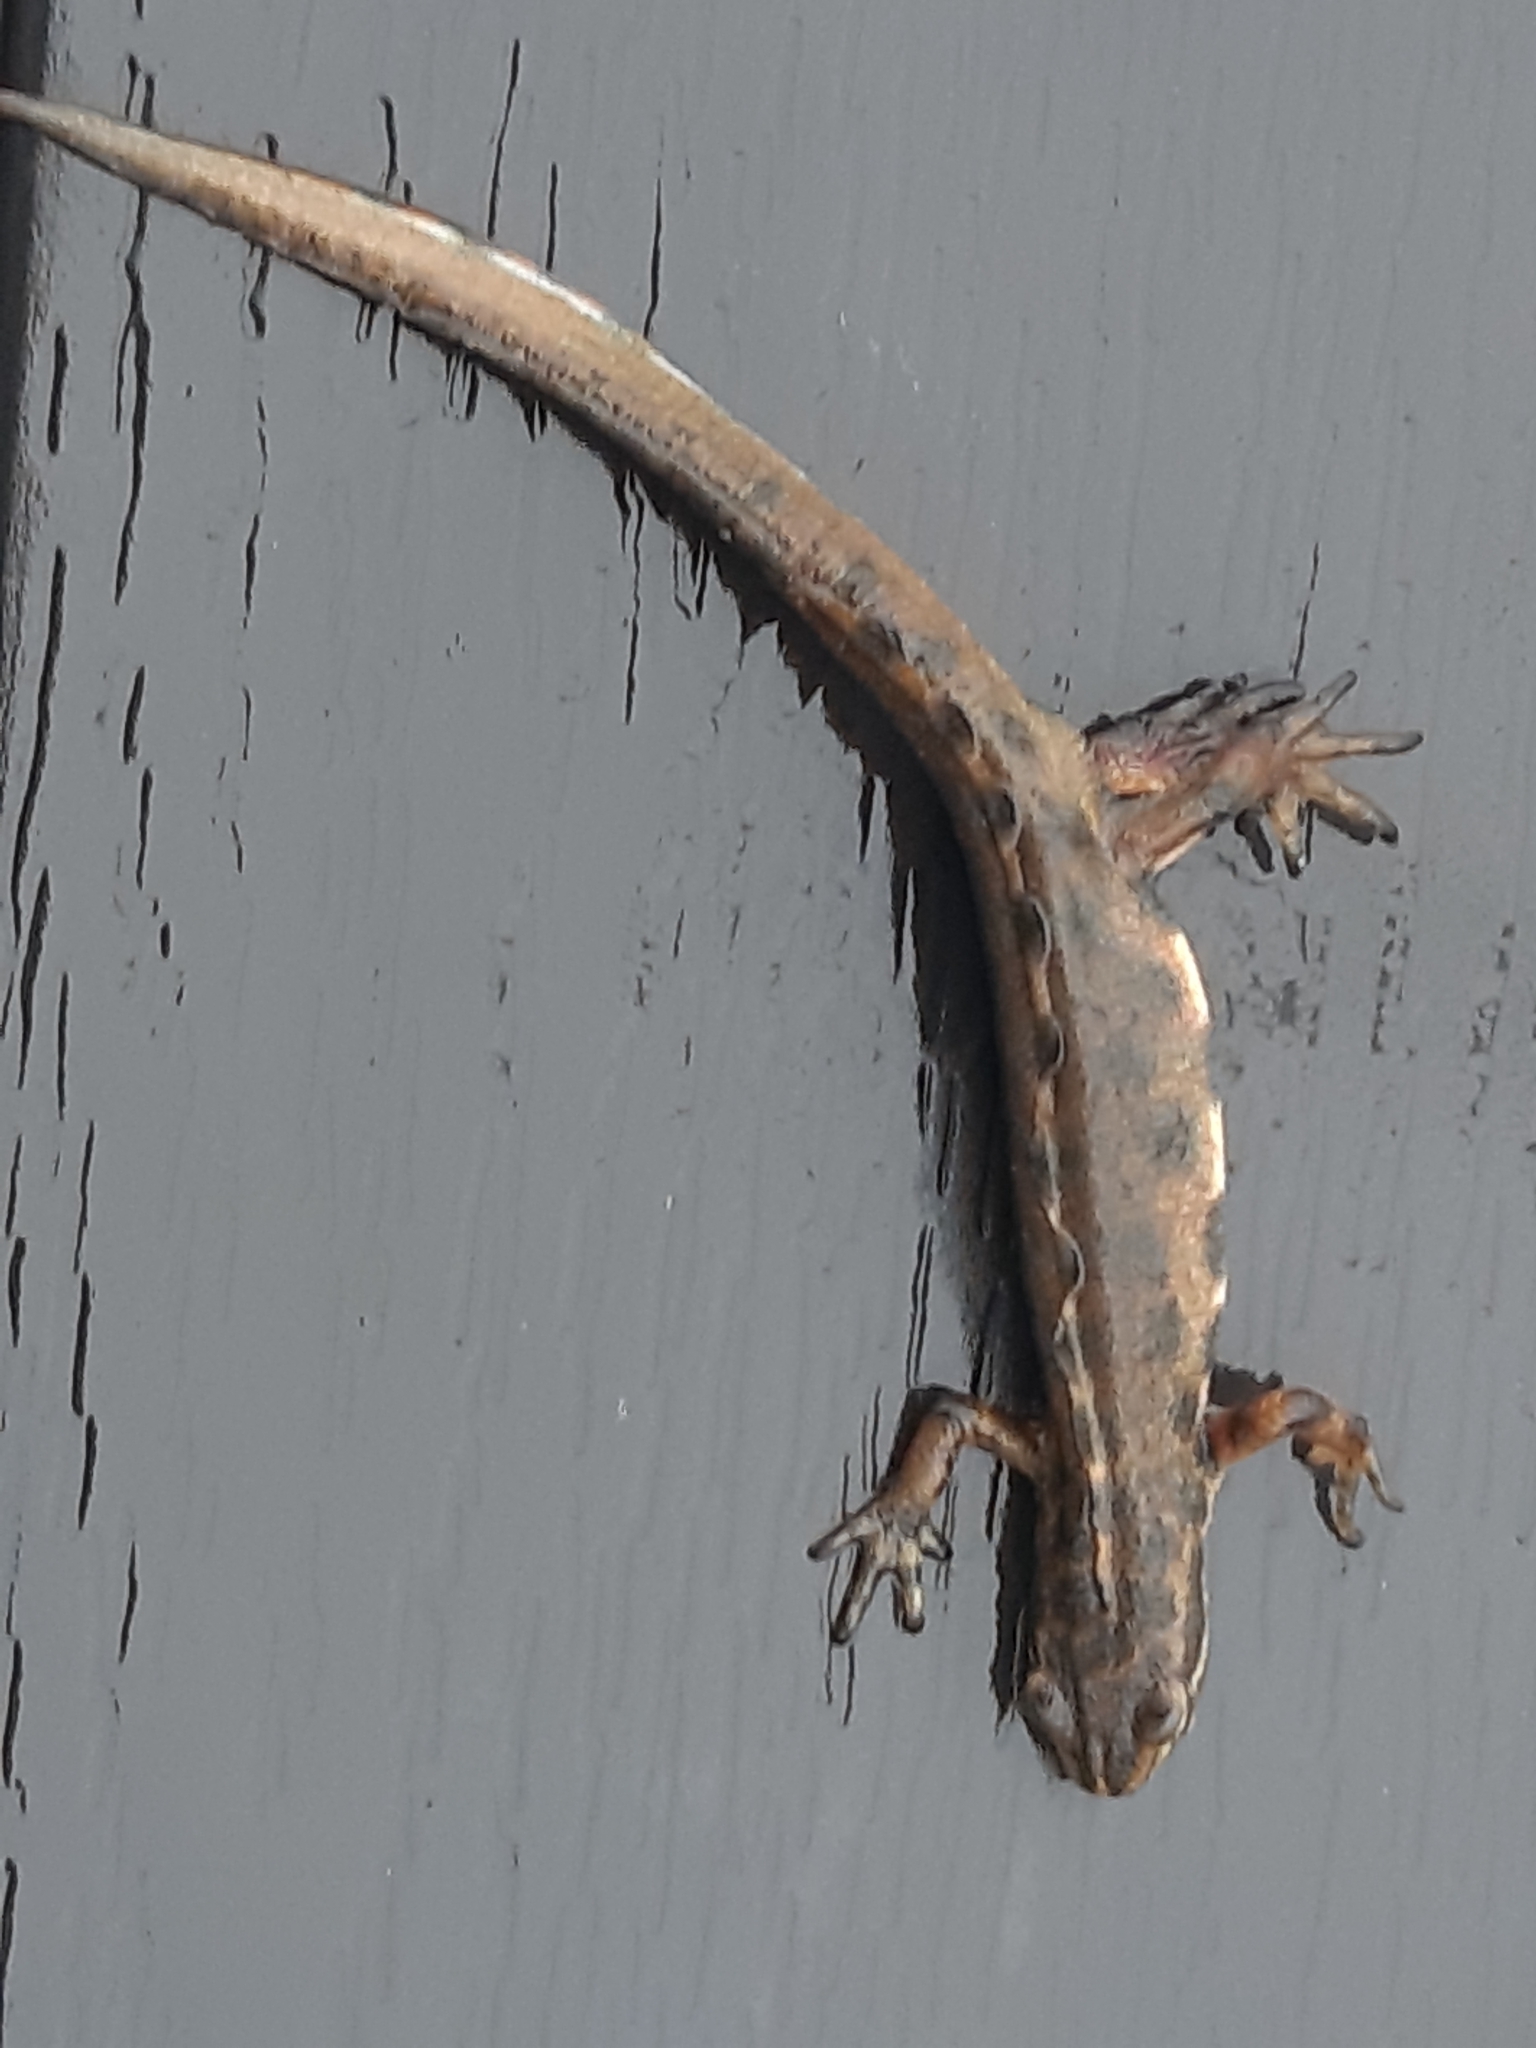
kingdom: Animalia
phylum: Chordata
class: Amphibia
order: Caudata
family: Salamandridae
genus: Lissotriton
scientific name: Lissotriton vulgaris
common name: Smooth newt
